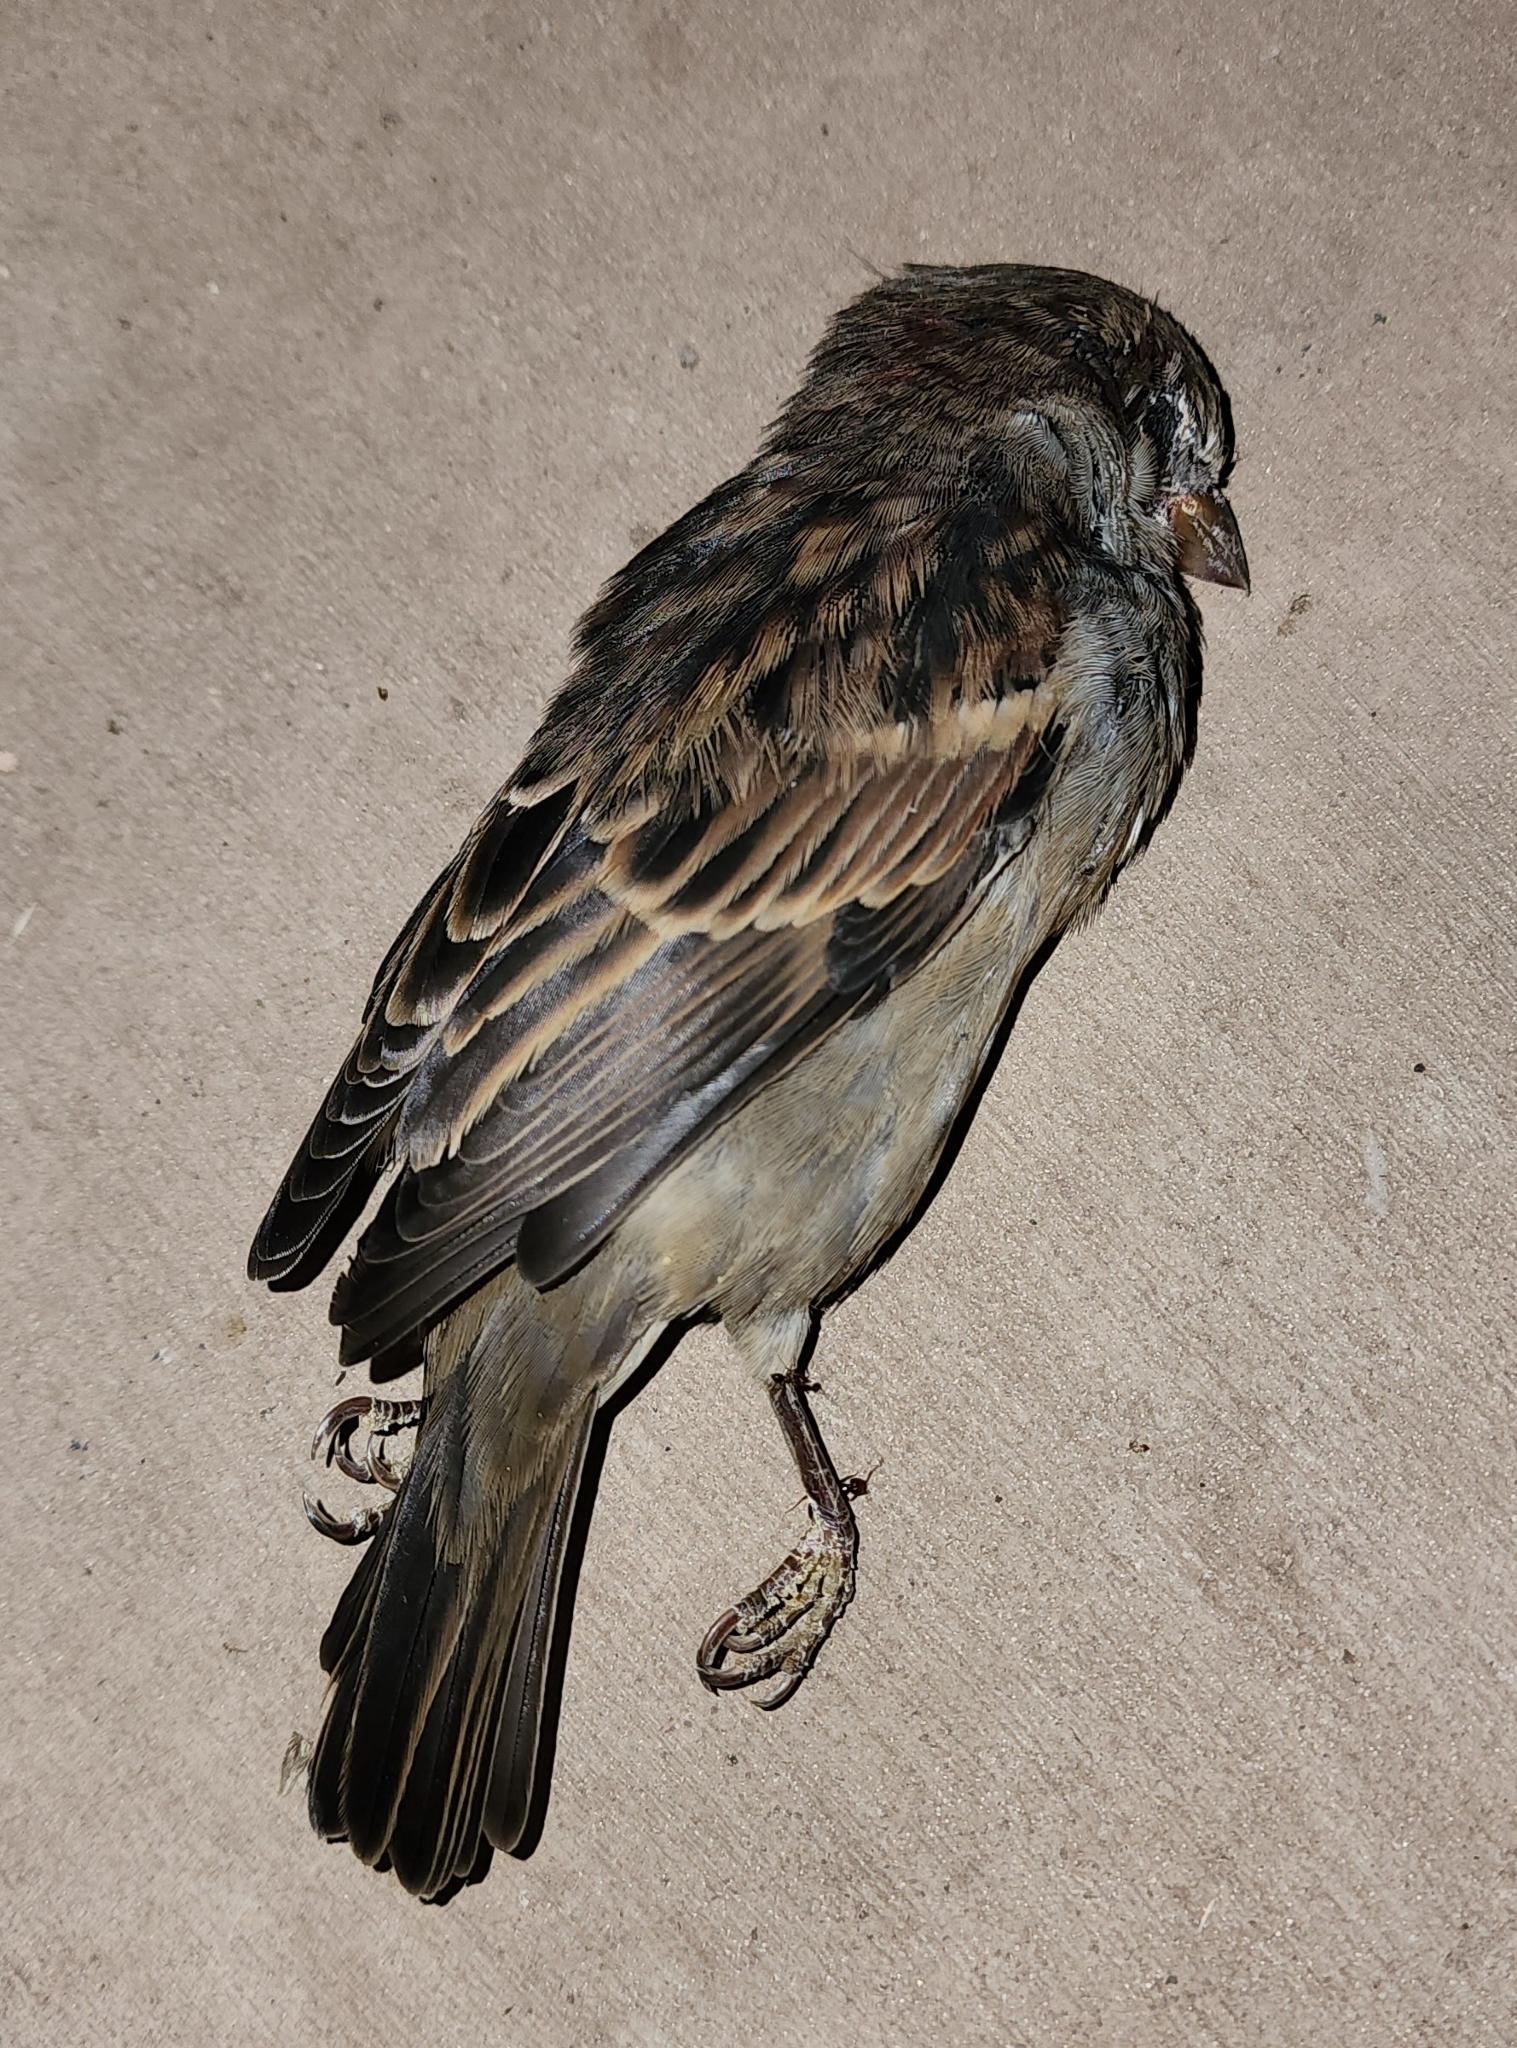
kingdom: Animalia
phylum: Chordata
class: Aves
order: Passeriformes
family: Passeridae
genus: Passer
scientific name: Passer domesticus
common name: House sparrow
